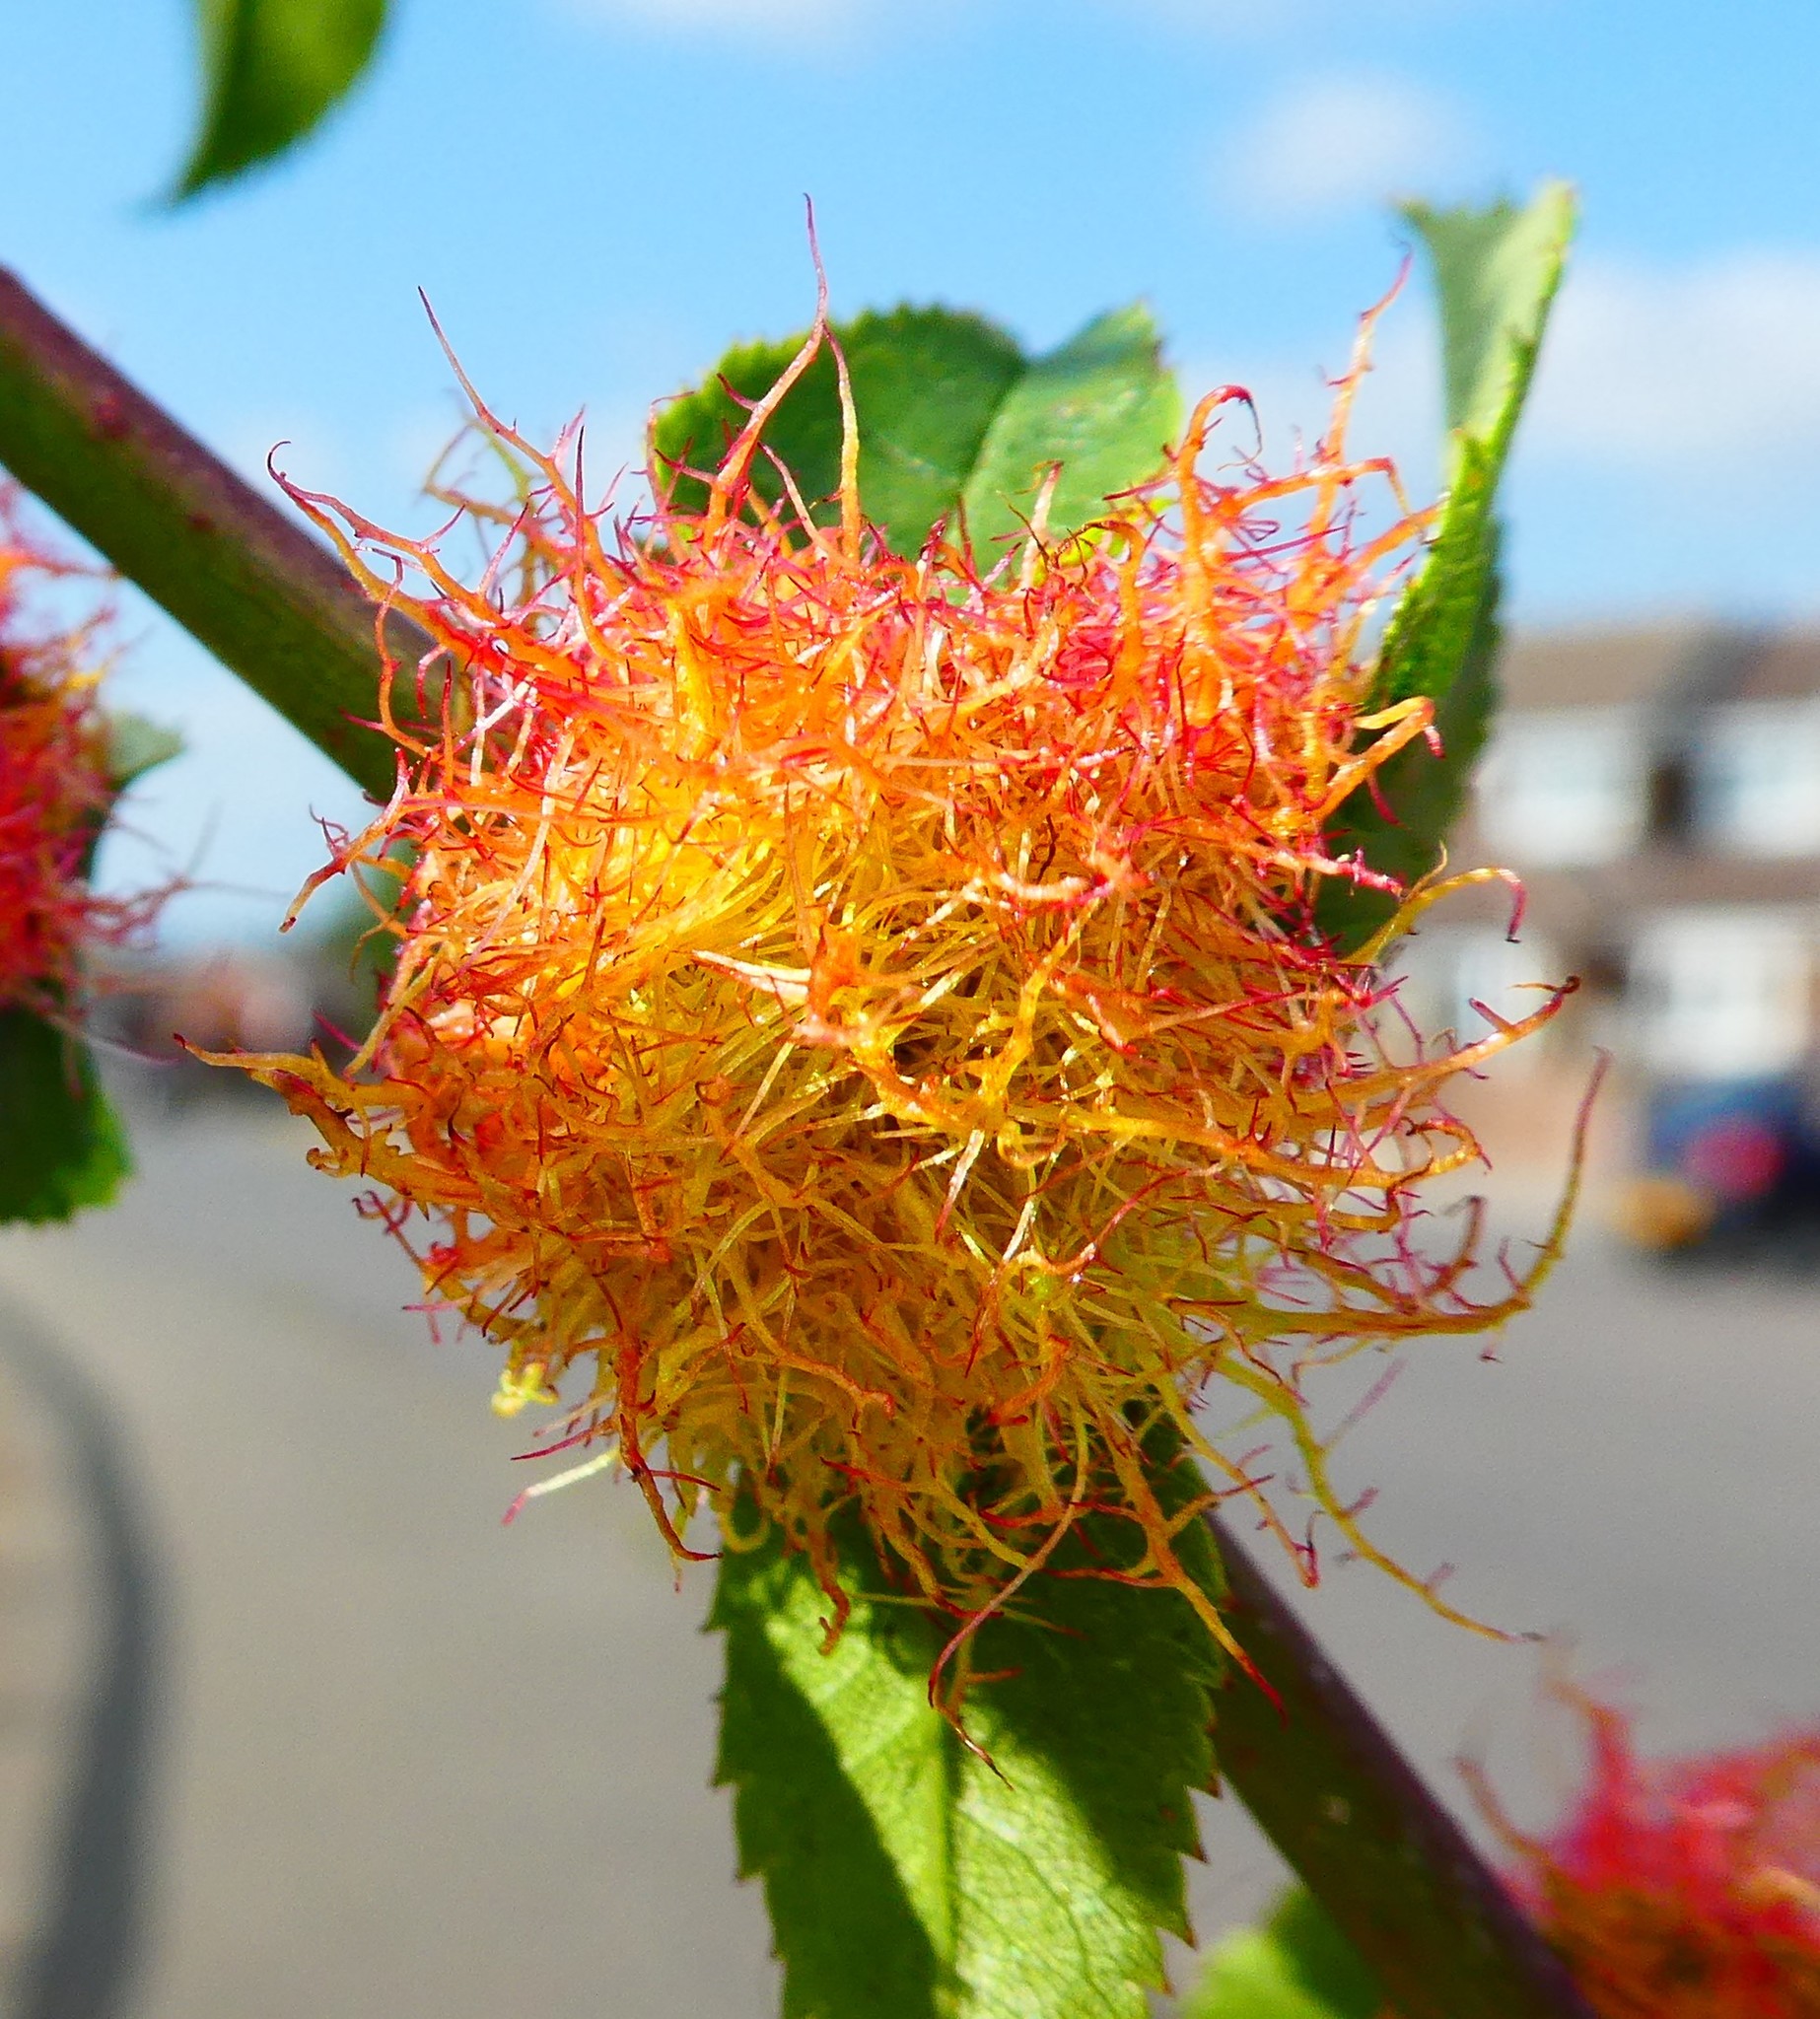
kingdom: Animalia
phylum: Arthropoda
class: Insecta
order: Hymenoptera
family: Cynipidae
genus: Diplolepis
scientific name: Diplolepis rosae
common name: Bedeguar gall
